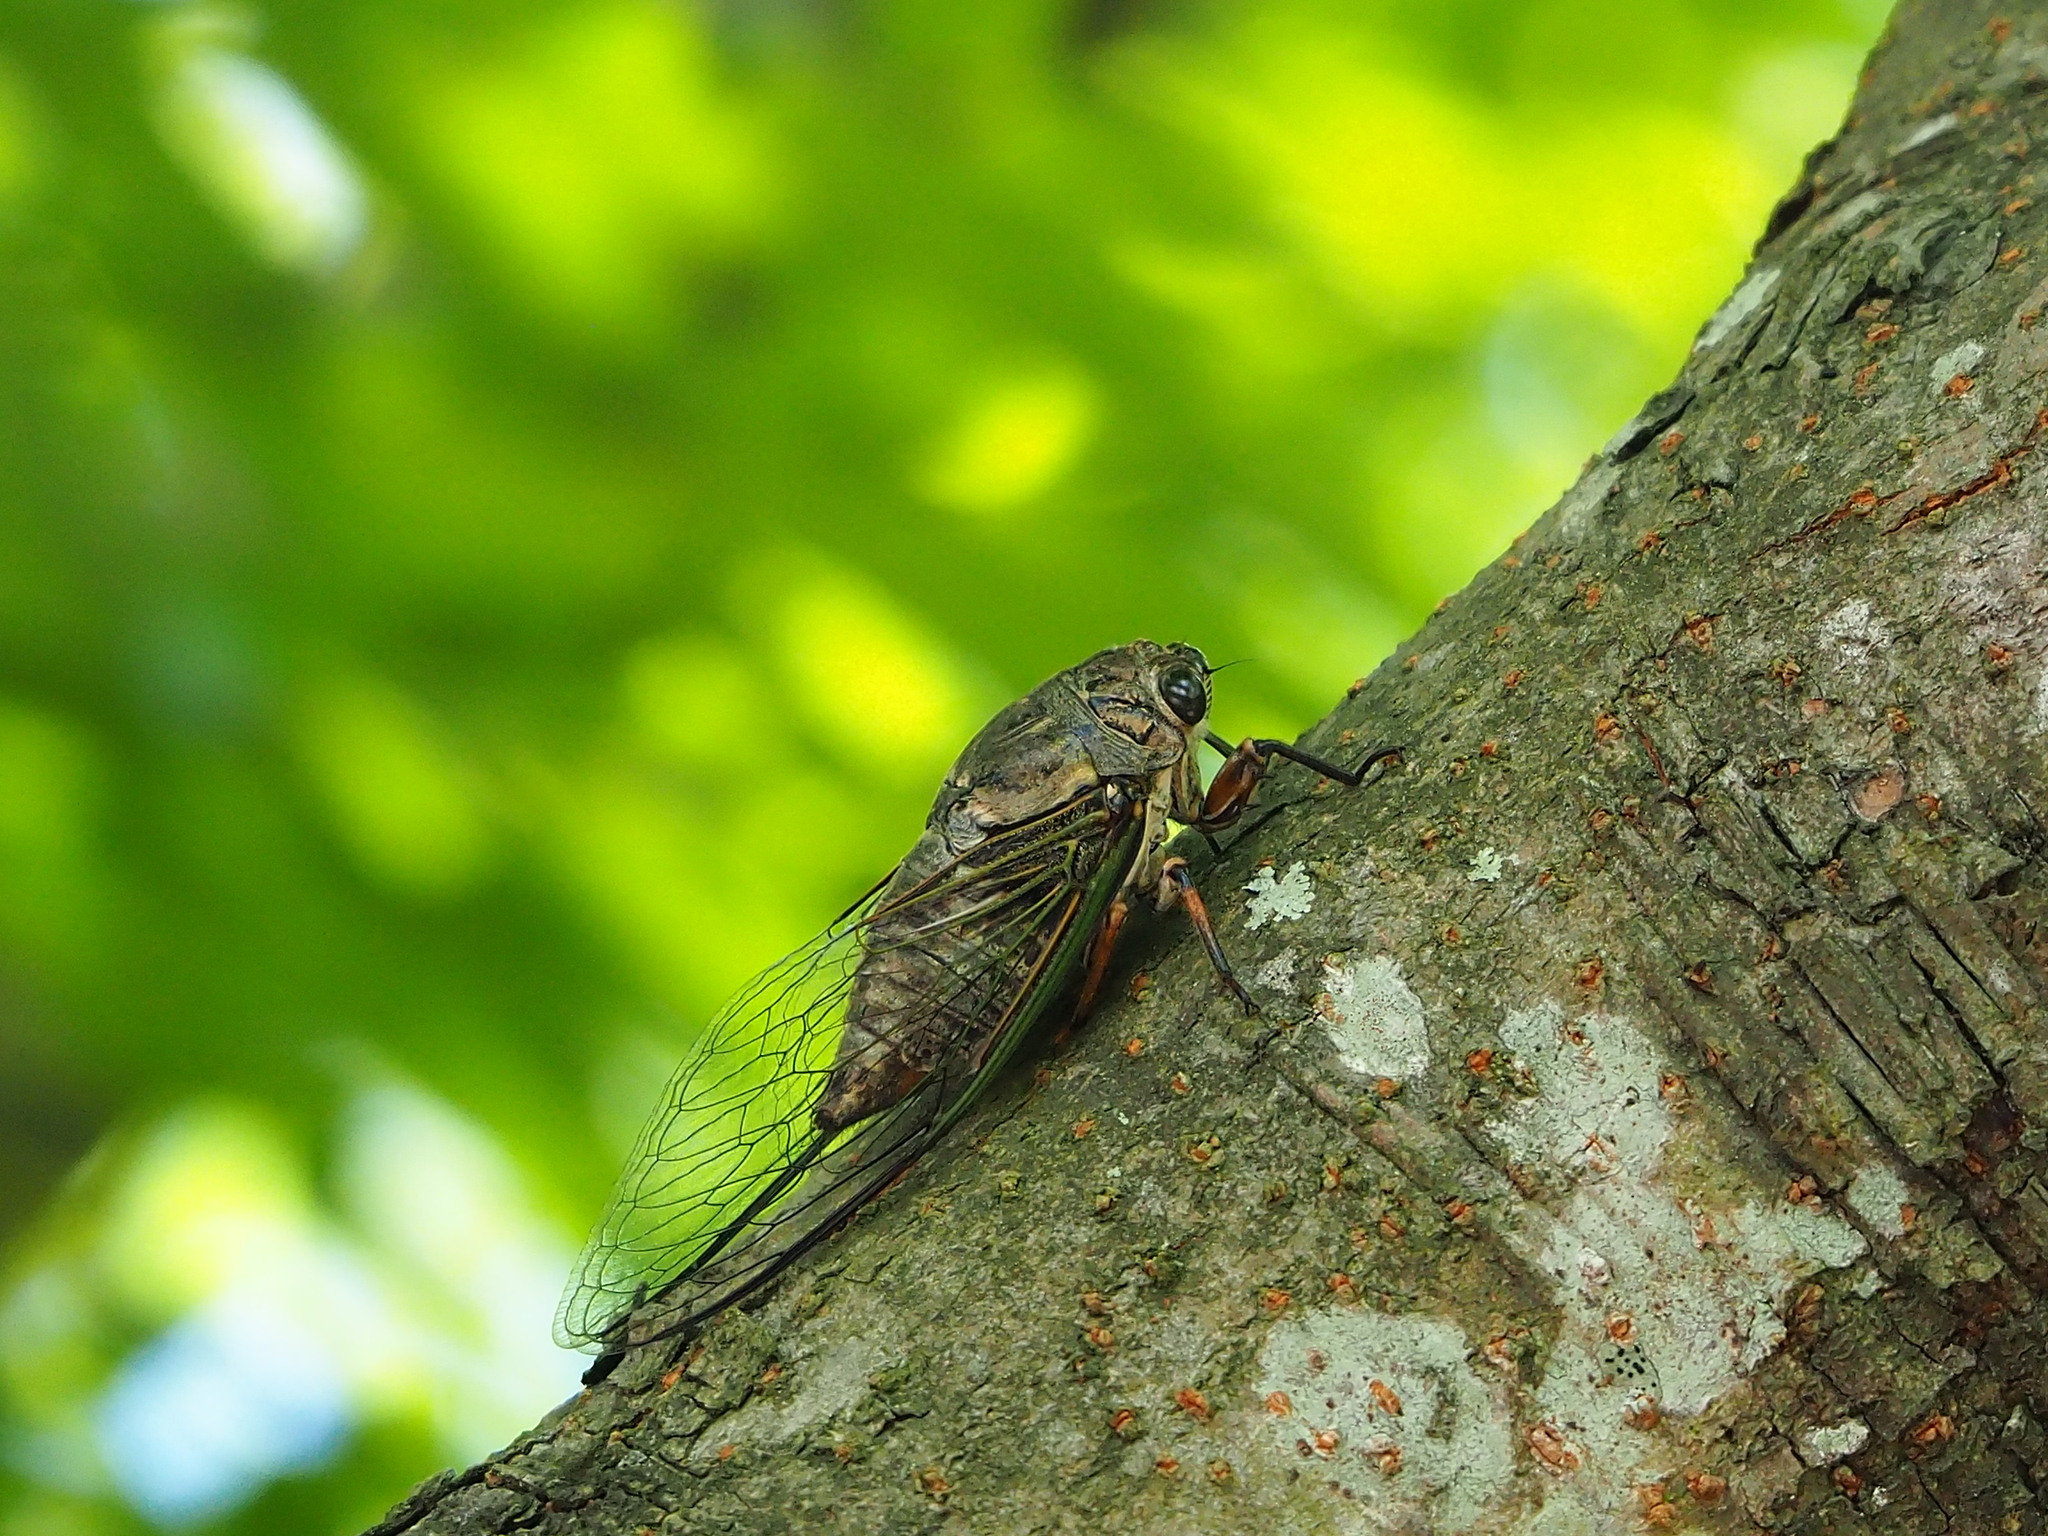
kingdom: Animalia
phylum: Arthropoda
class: Insecta
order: Hemiptera
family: Cicadidae
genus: Cryptotympana
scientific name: Cryptotympana takasagona
